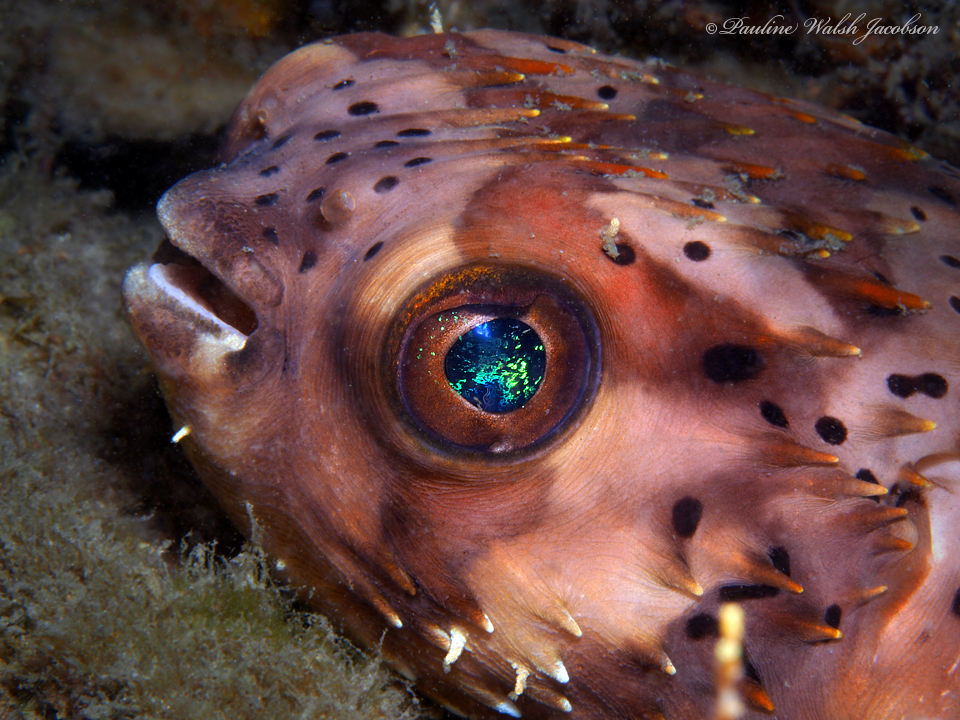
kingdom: Animalia
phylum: Chordata
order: Tetraodontiformes
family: Diodontidae
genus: Diodon
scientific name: Diodon holocanthus
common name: Balloonfish
